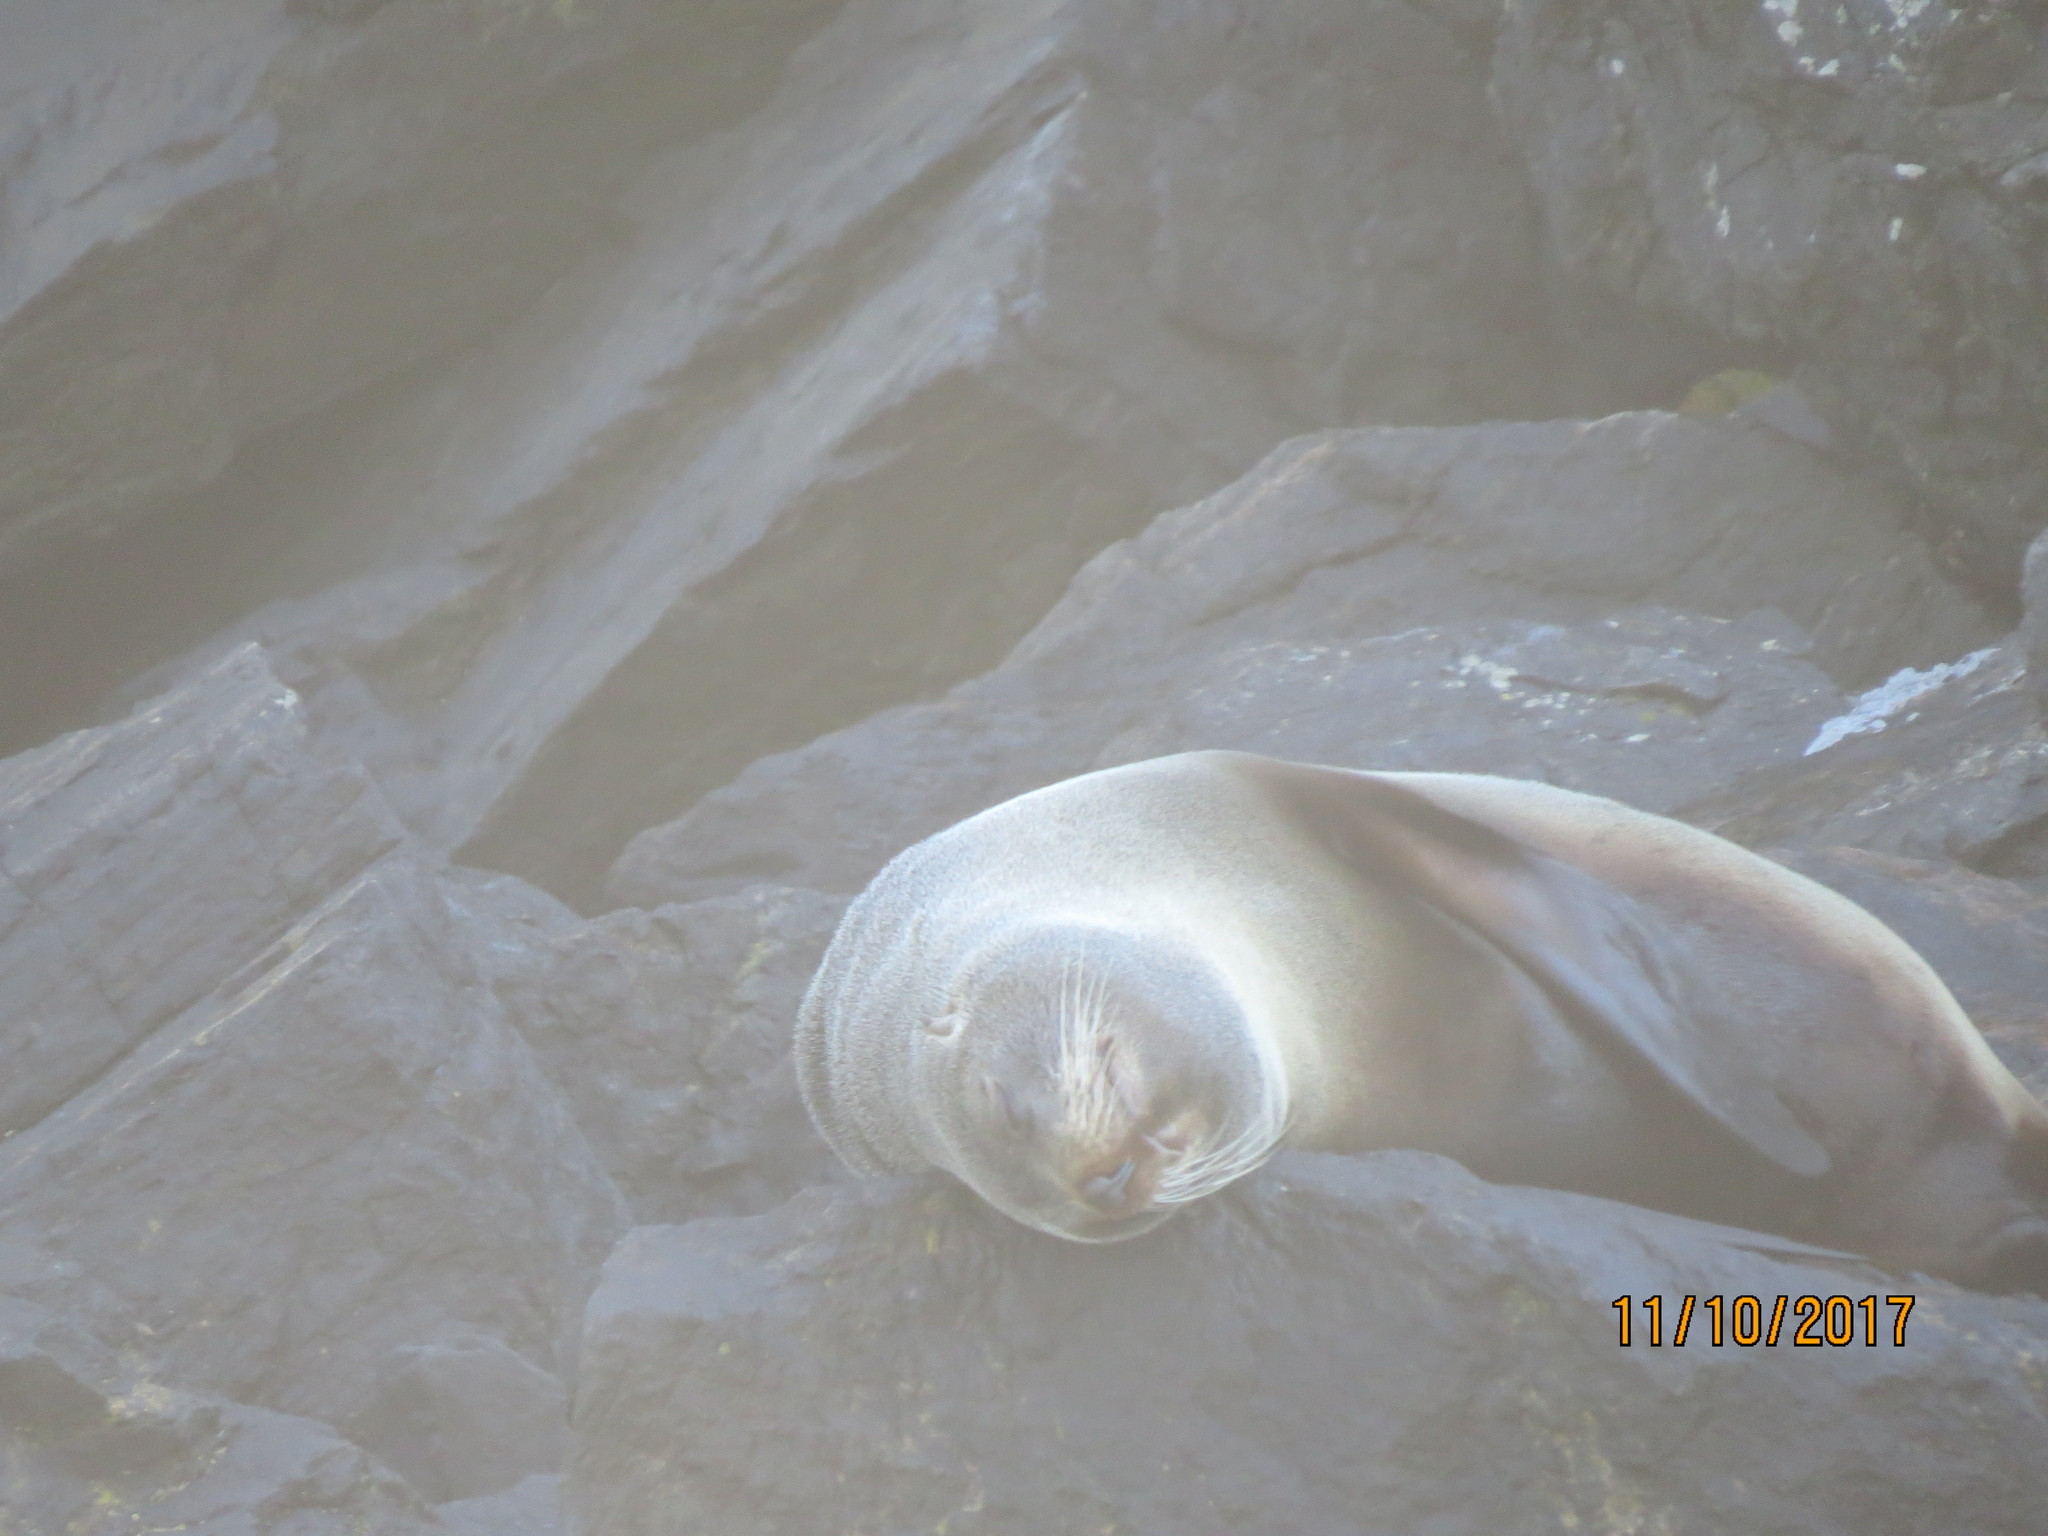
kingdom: Animalia
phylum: Chordata
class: Mammalia
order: Carnivora
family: Otariidae
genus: Arctocephalus
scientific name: Arctocephalus forsteri
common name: New zealand fur seal
